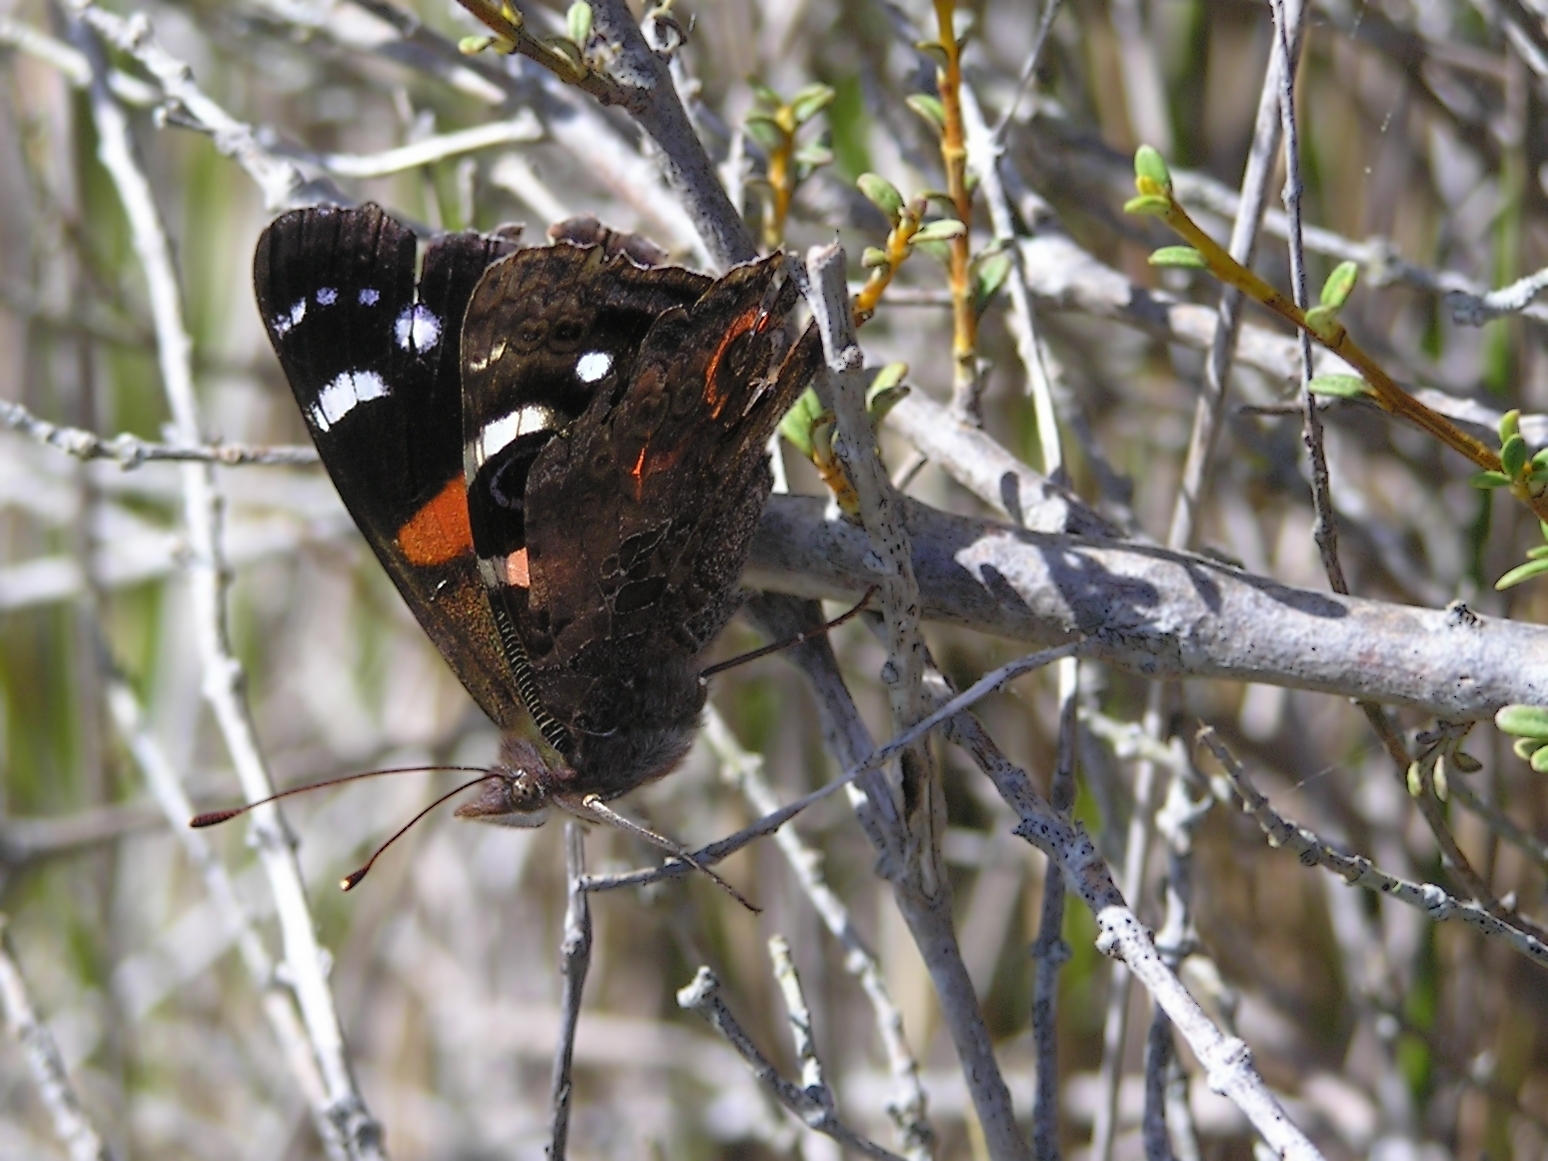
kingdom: Animalia
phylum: Arthropoda
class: Insecta
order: Lepidoptera
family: Nymphalidae
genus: Vanessa
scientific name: Vanessa gonerilla
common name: New zealand red admiral
